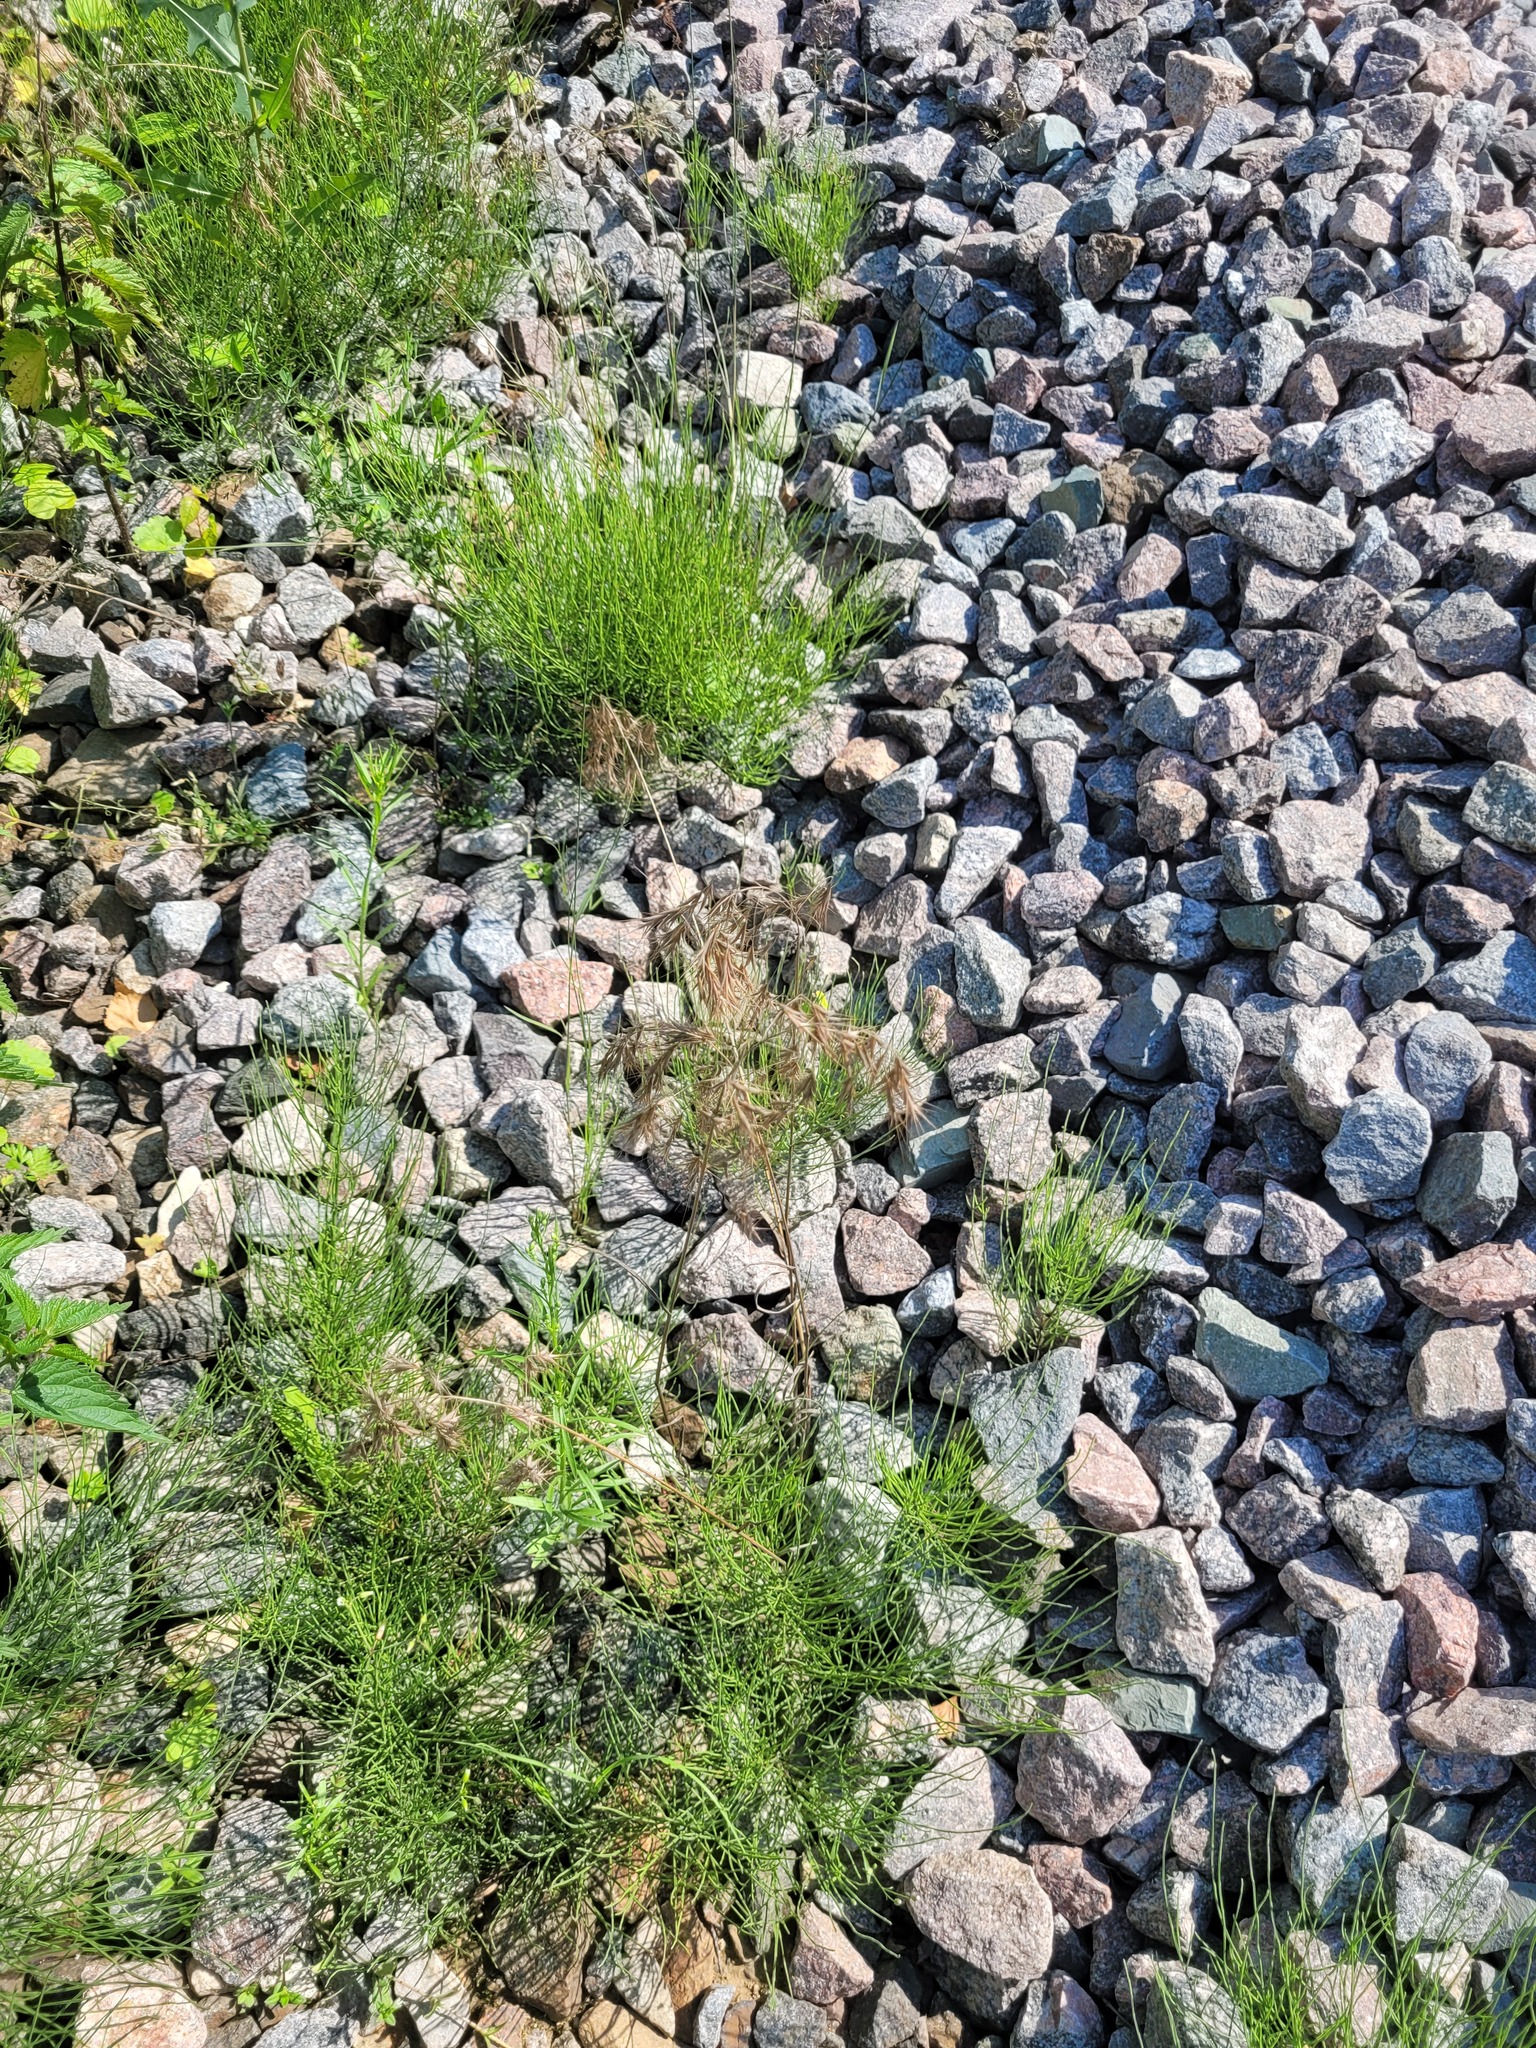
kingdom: Plantae
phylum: Tracheophyta
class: Liliopsida
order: Poales
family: Poaceae
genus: Bromus
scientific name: Bromus tectorum
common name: Cheatgrass
